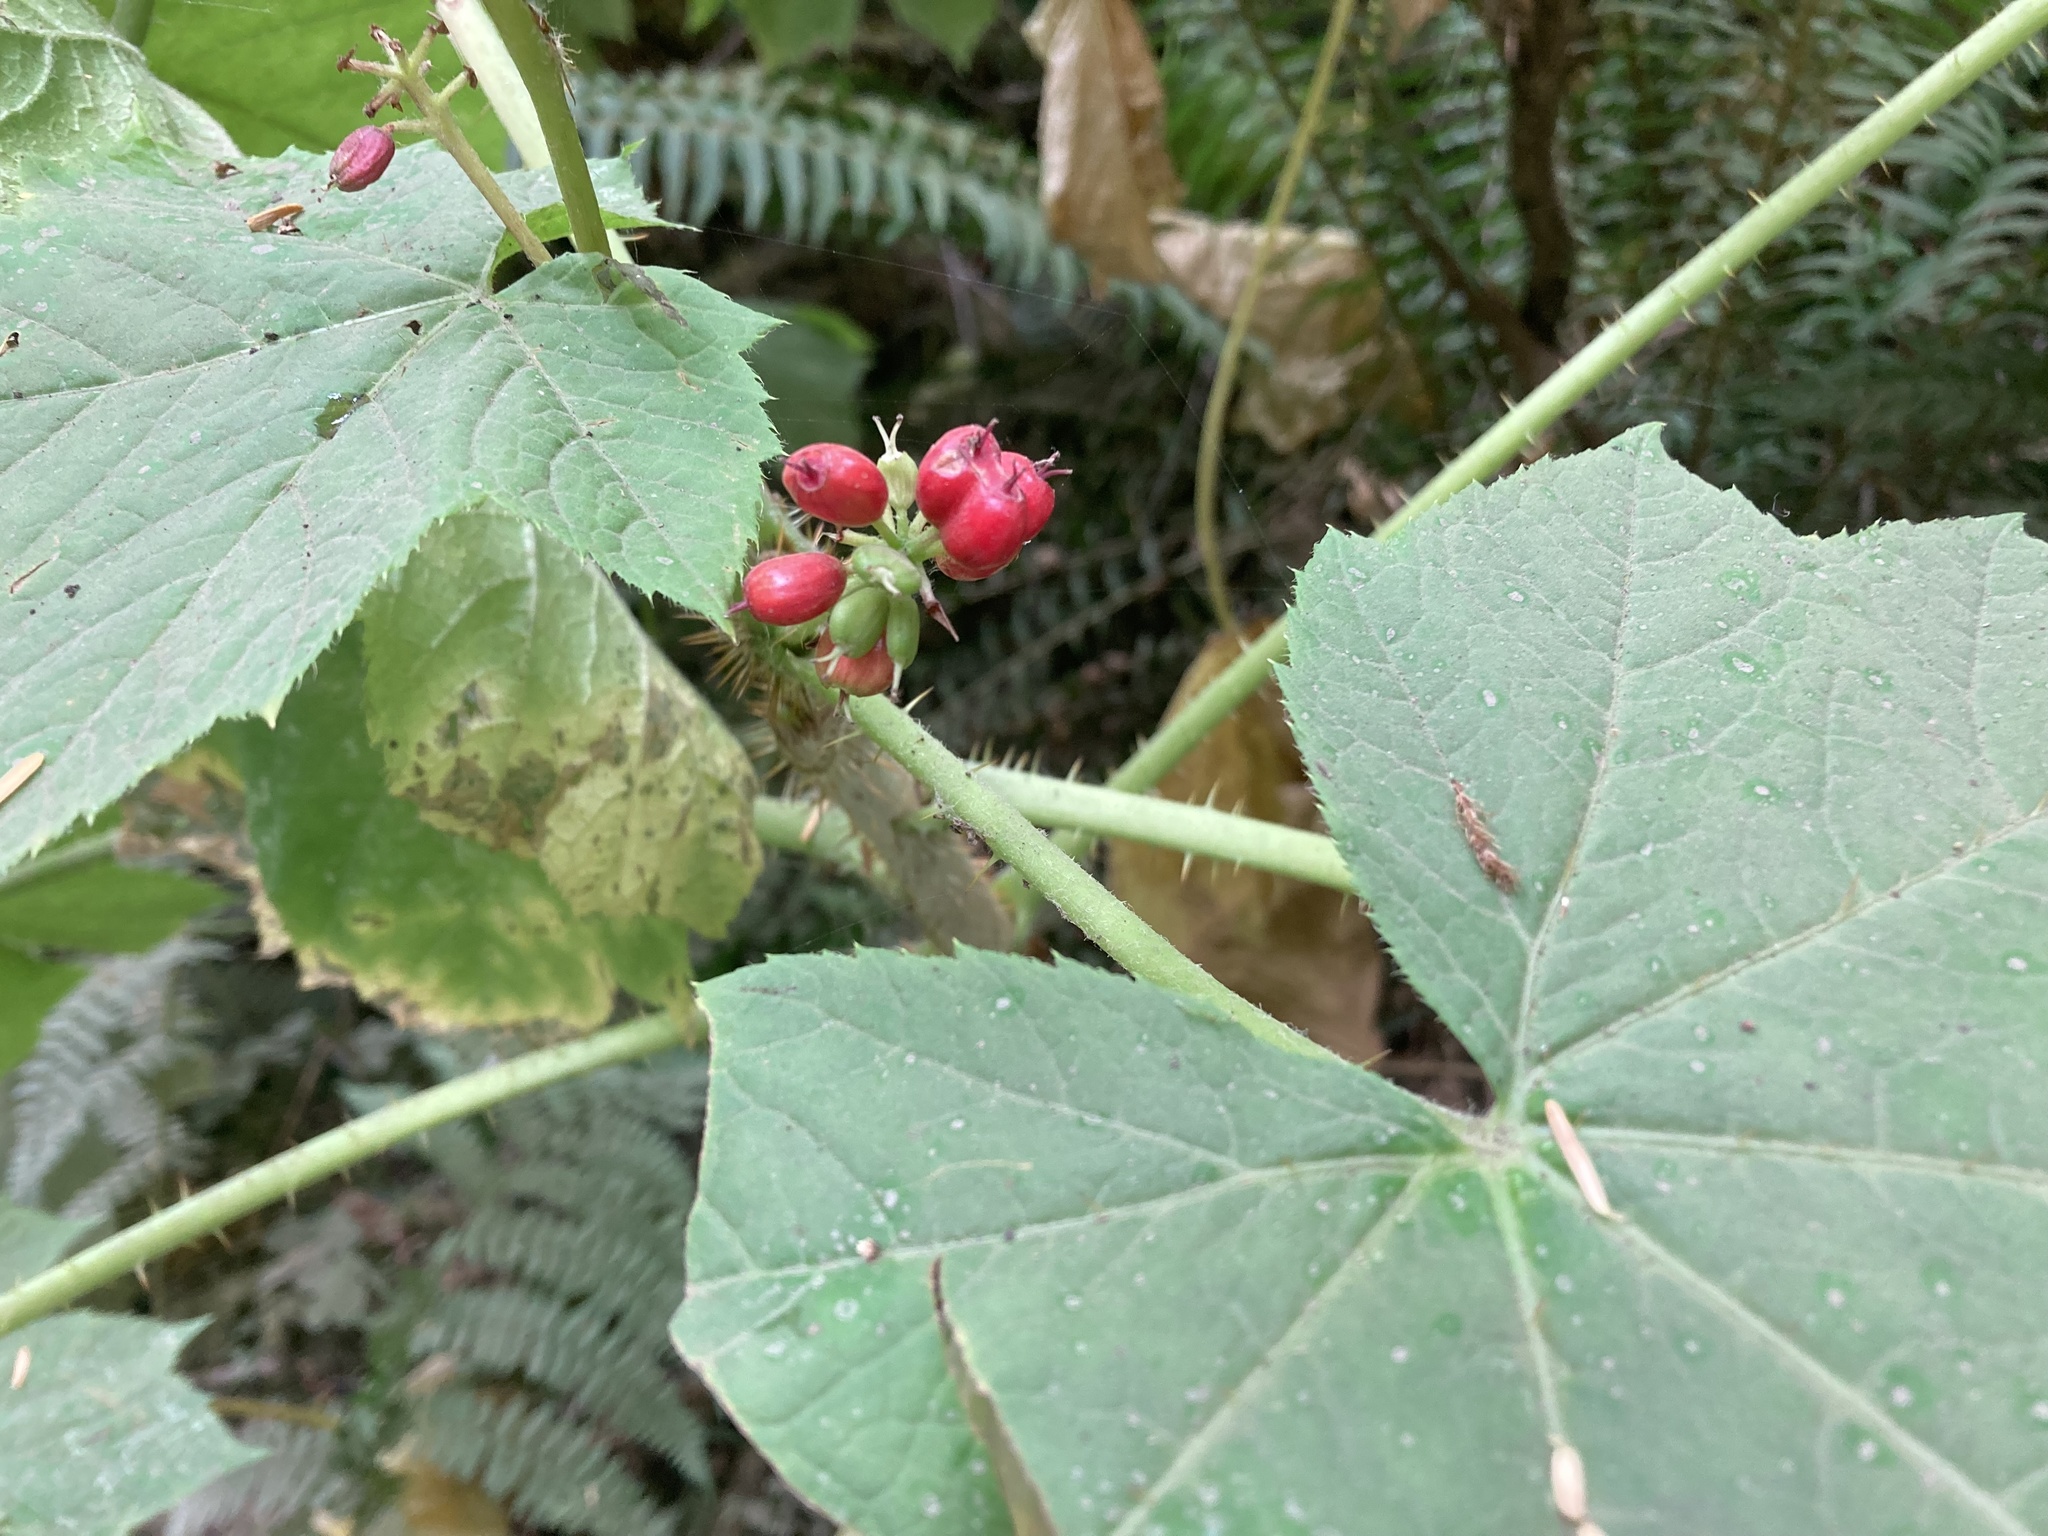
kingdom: Plantae
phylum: Tracheophyta
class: Magnoliopsida
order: Apiales
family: Araliaceae
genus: Oplopanax
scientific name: Oplopanax horridus
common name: Devil's walking-stick
